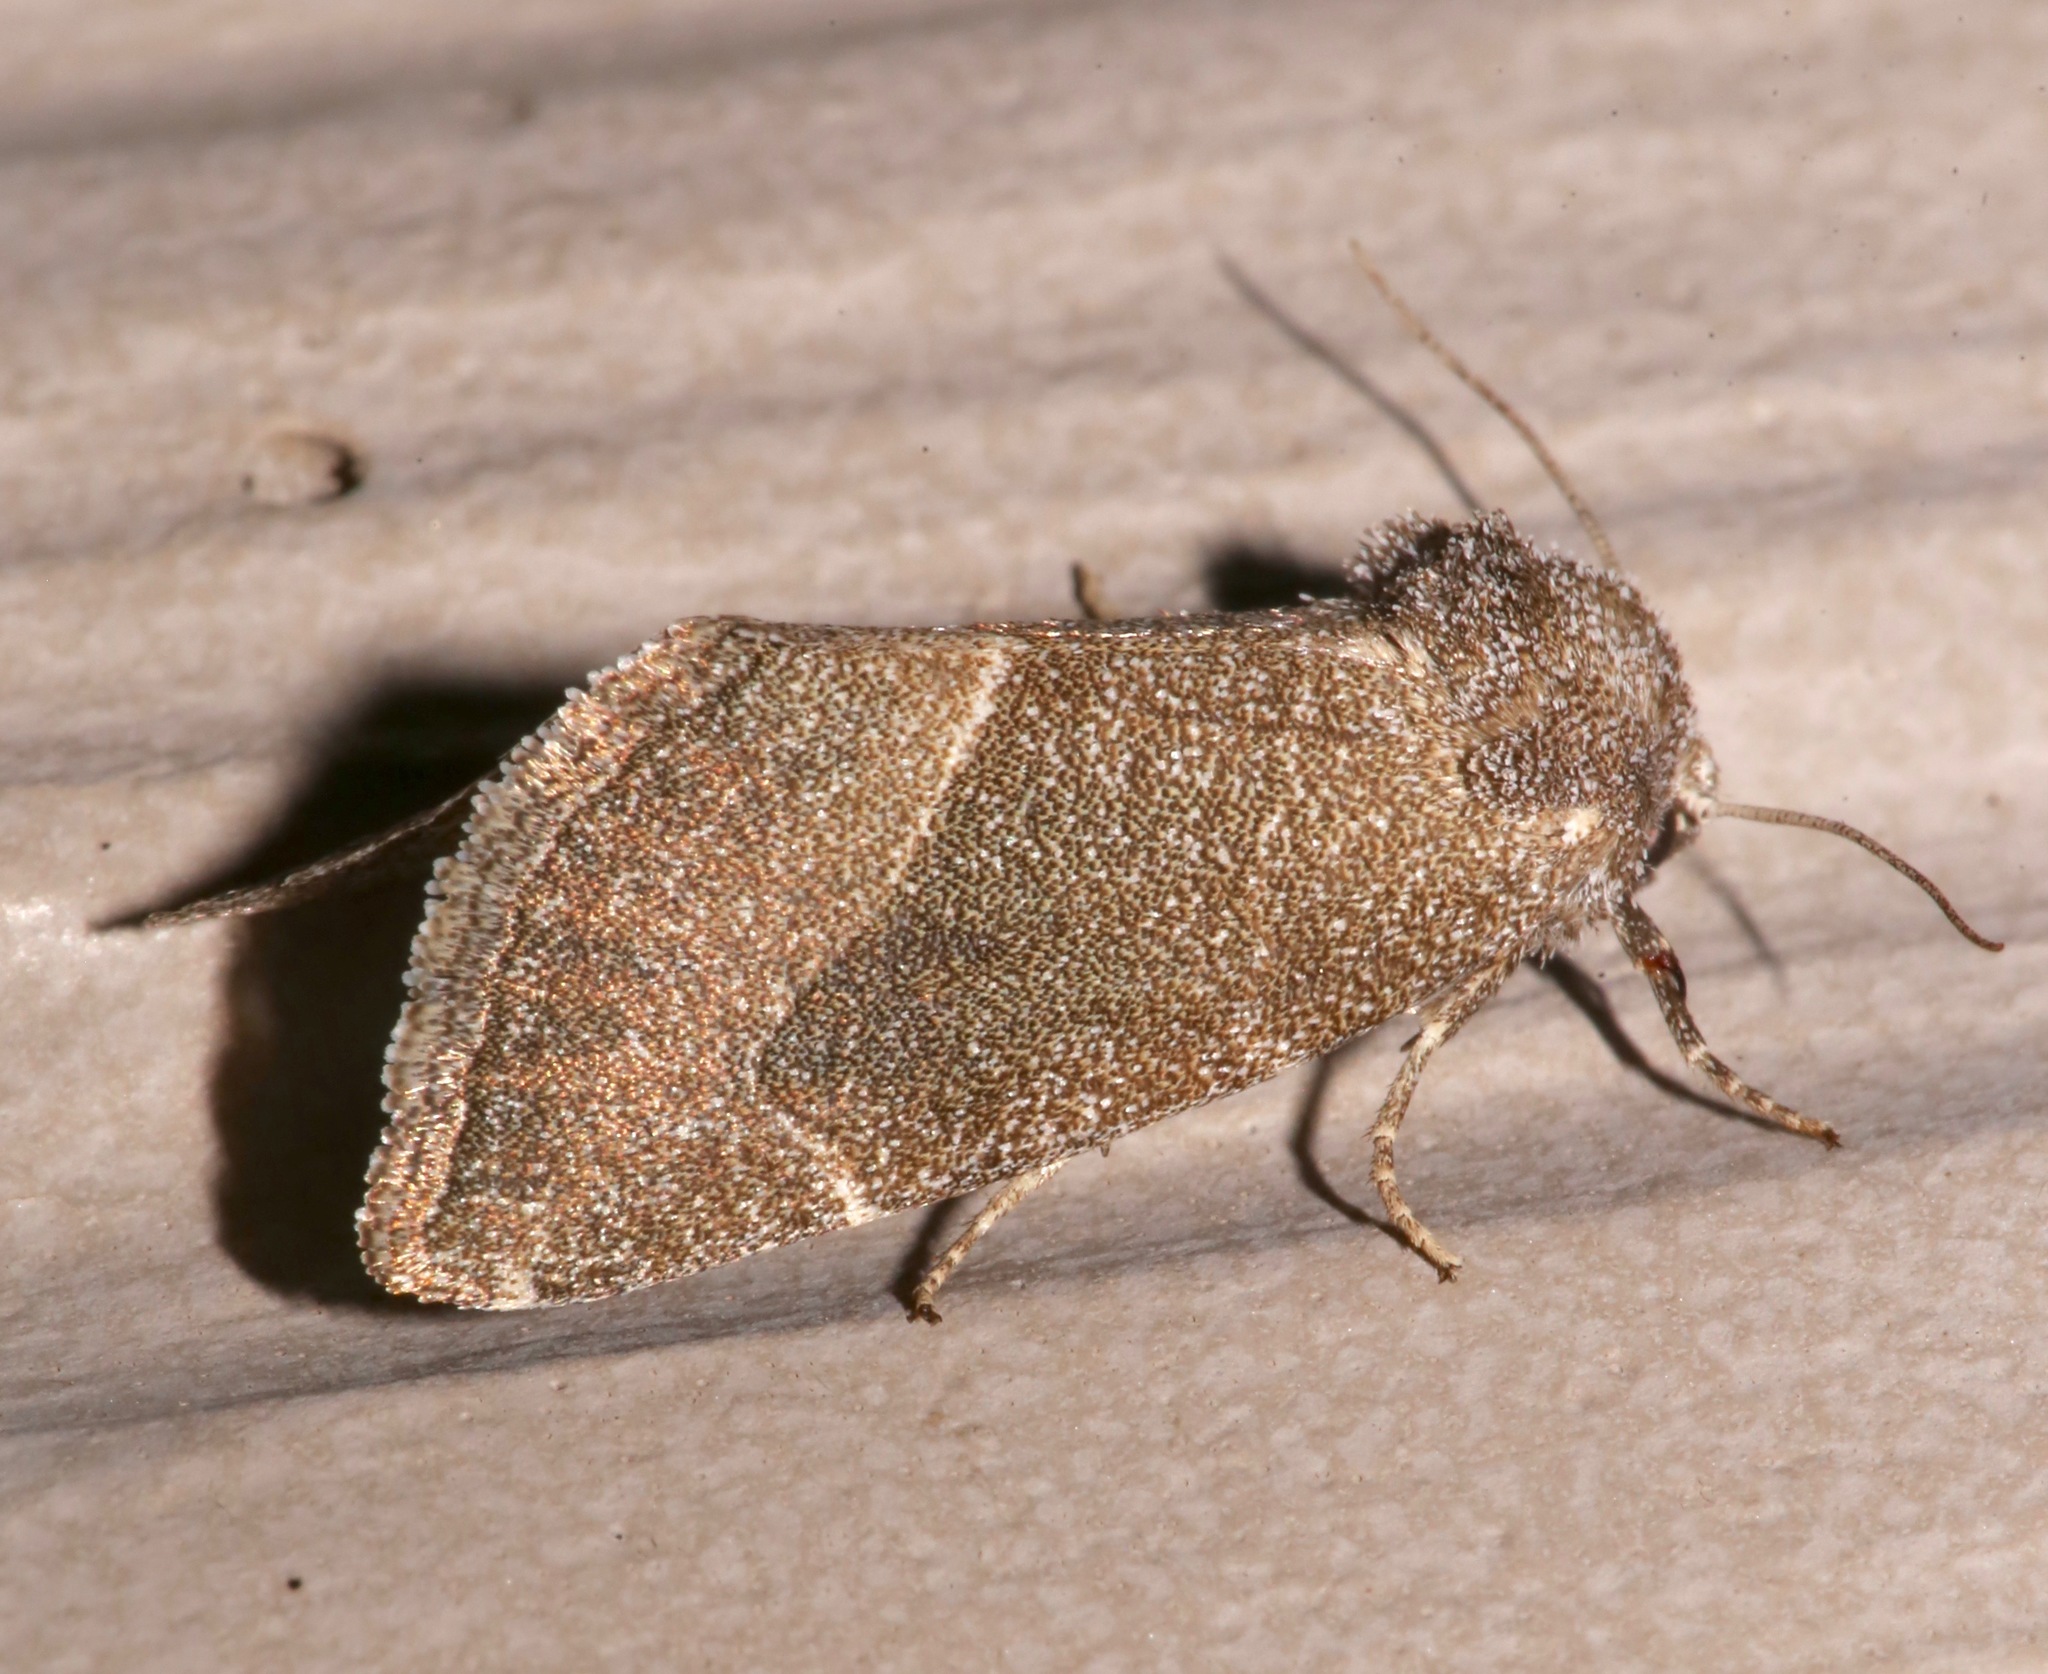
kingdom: Animalia
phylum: Arthropoda
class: Insecta
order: Lepidoptera
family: Noctuidae
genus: Plagiomimicus
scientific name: Plagiomimicus spumosum
